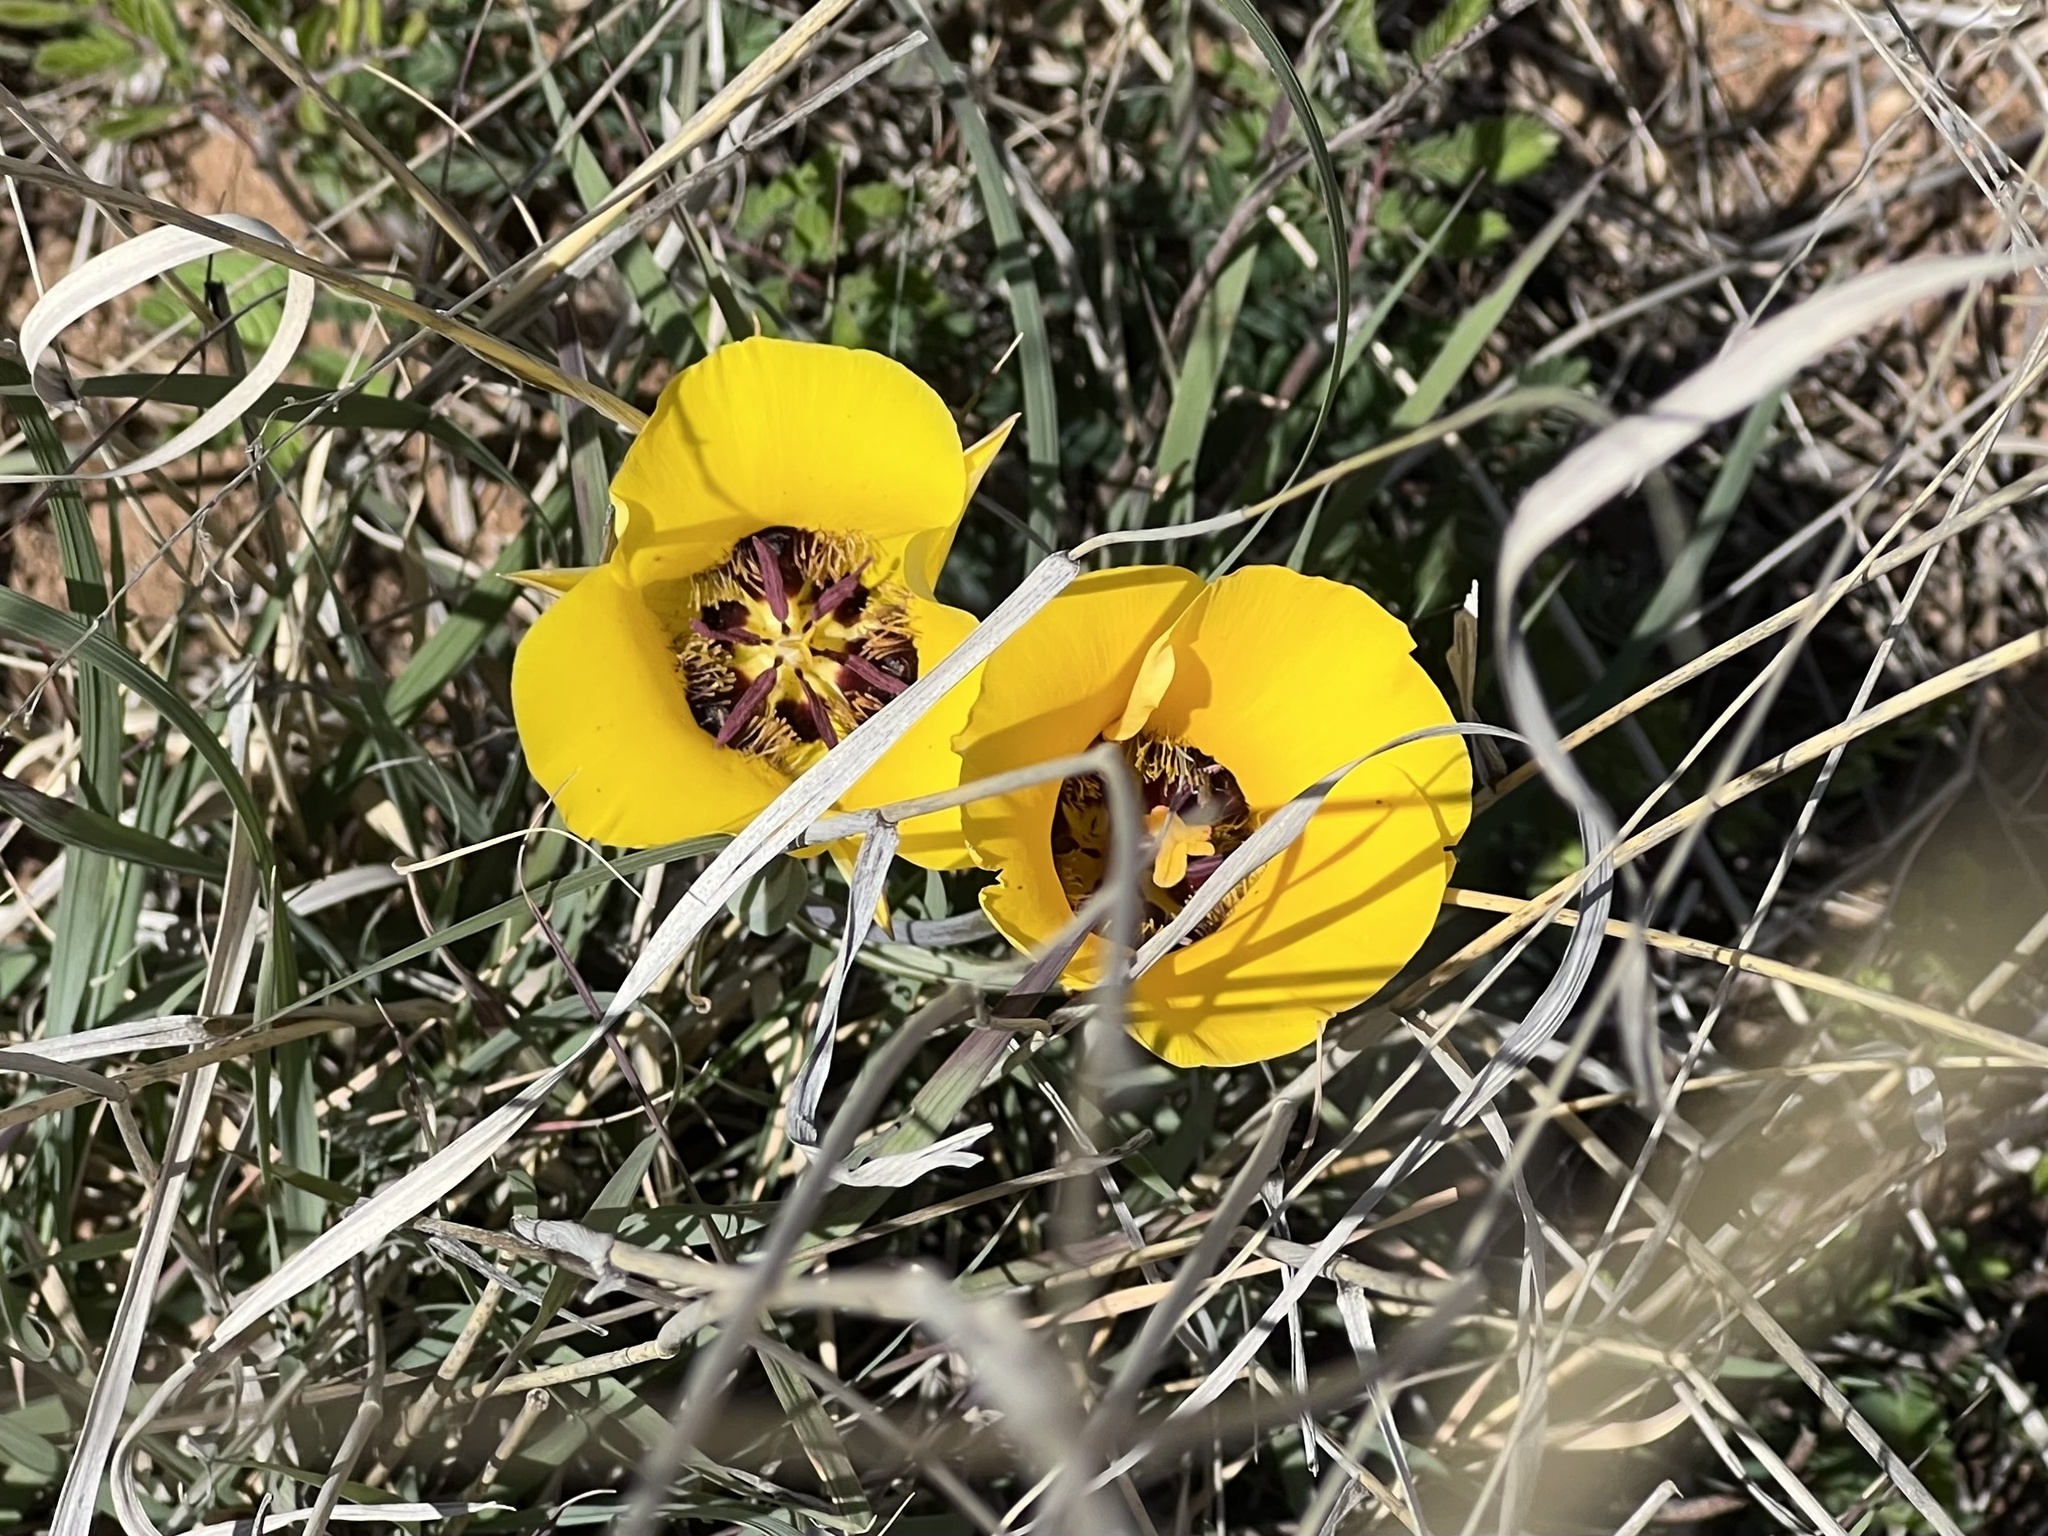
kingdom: Plantae
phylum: Tracheophyta
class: Liliopsida
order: Liliales
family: Liliaceae
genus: Calochortus
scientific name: Calochortus kennedyi
